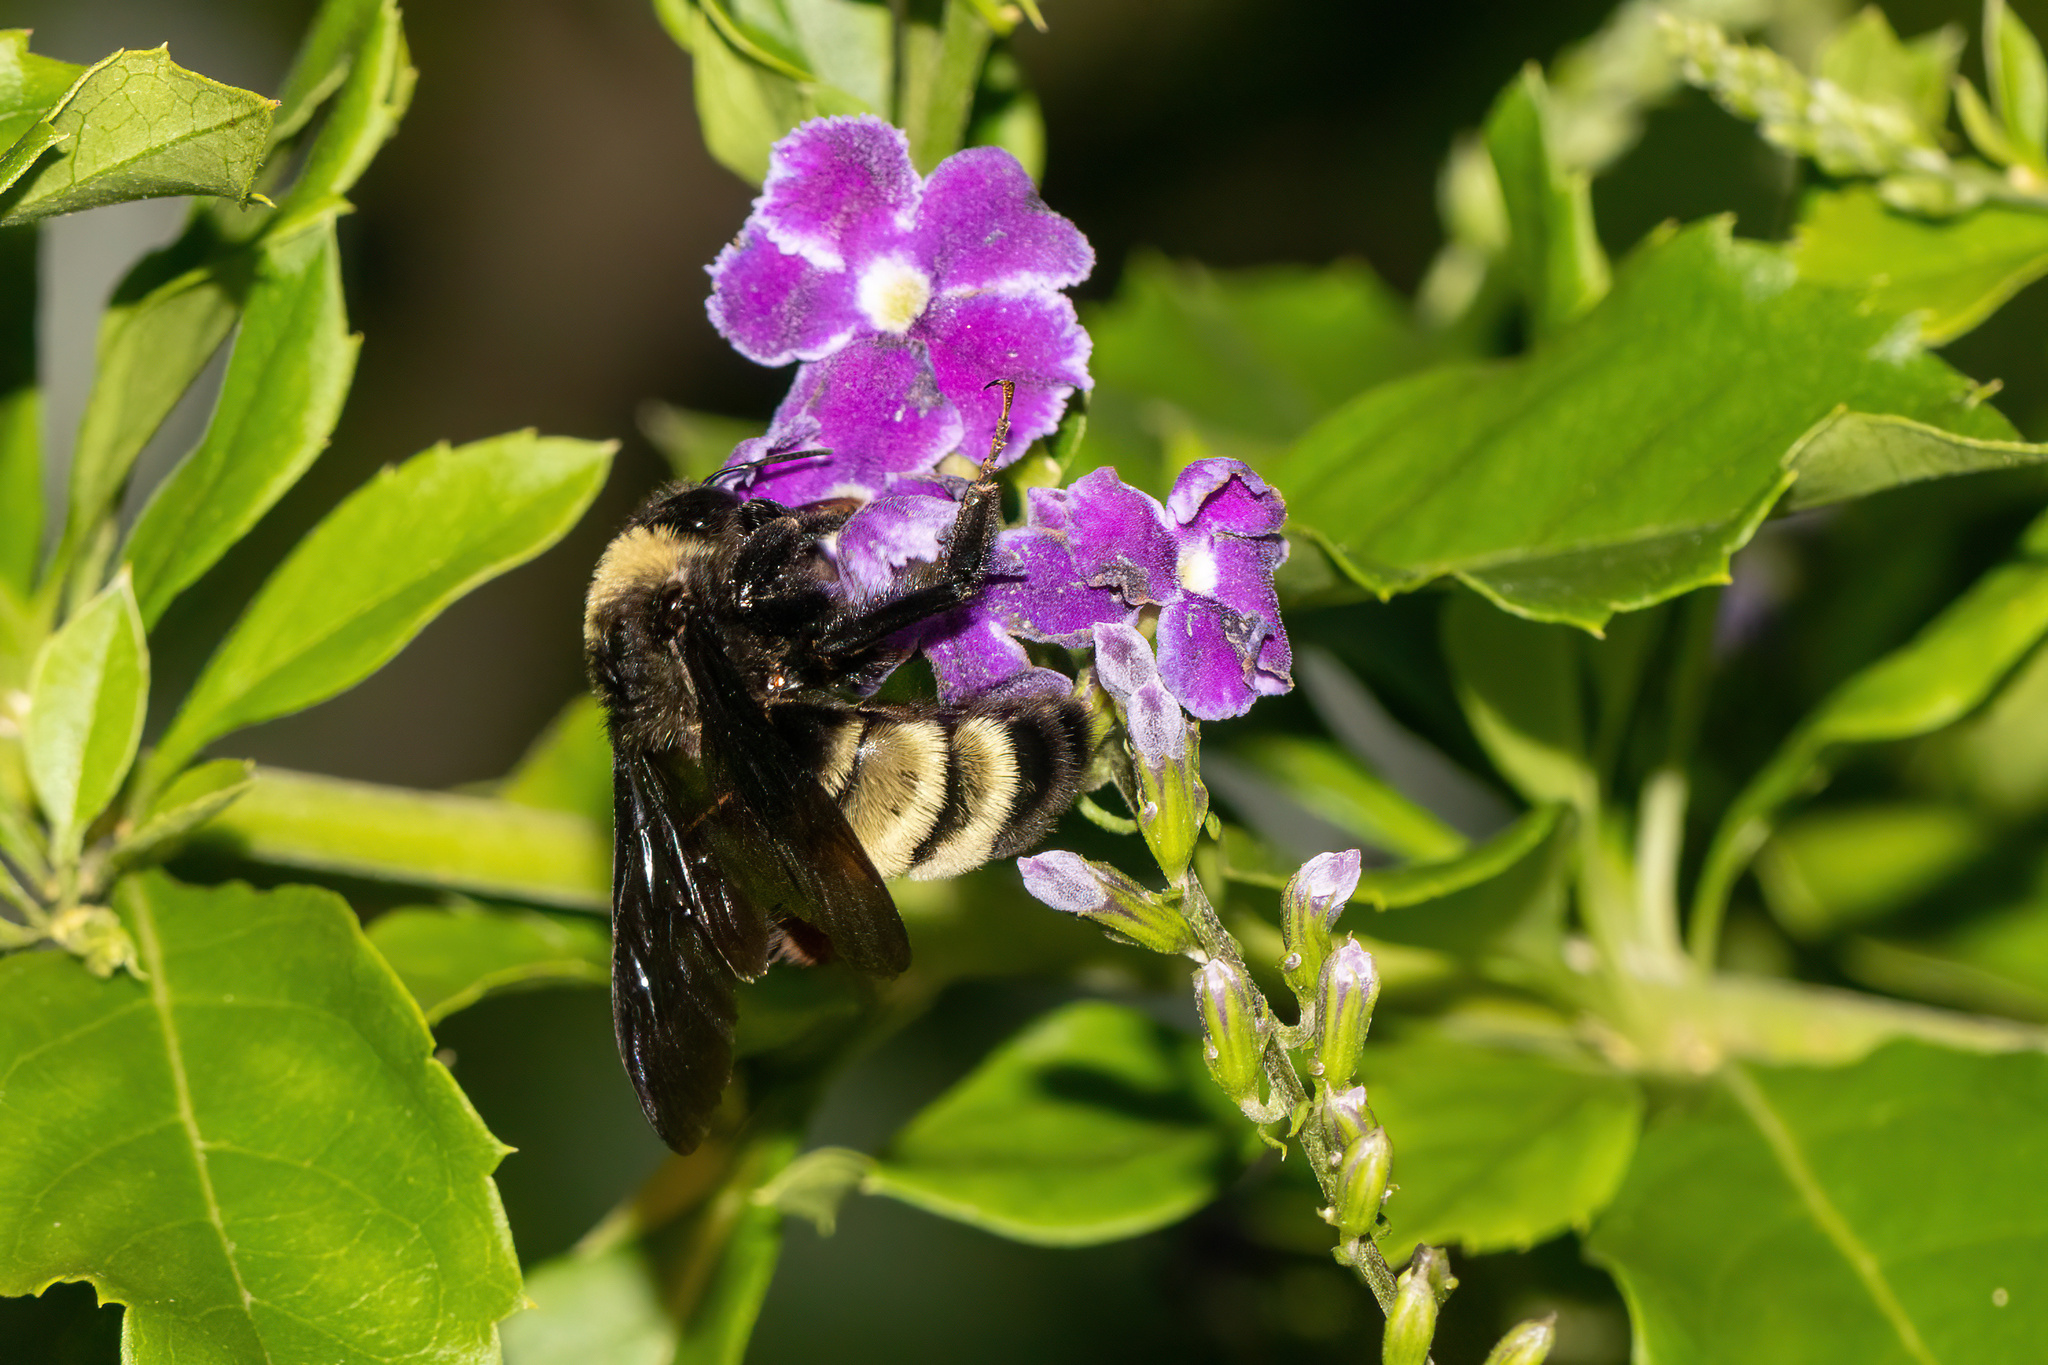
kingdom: Animalia
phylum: Arthropoda
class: Insecta
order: Hymenoptera
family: Apidae
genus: Bombus
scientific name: Bombus pensylvanicus
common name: Bumble bee
